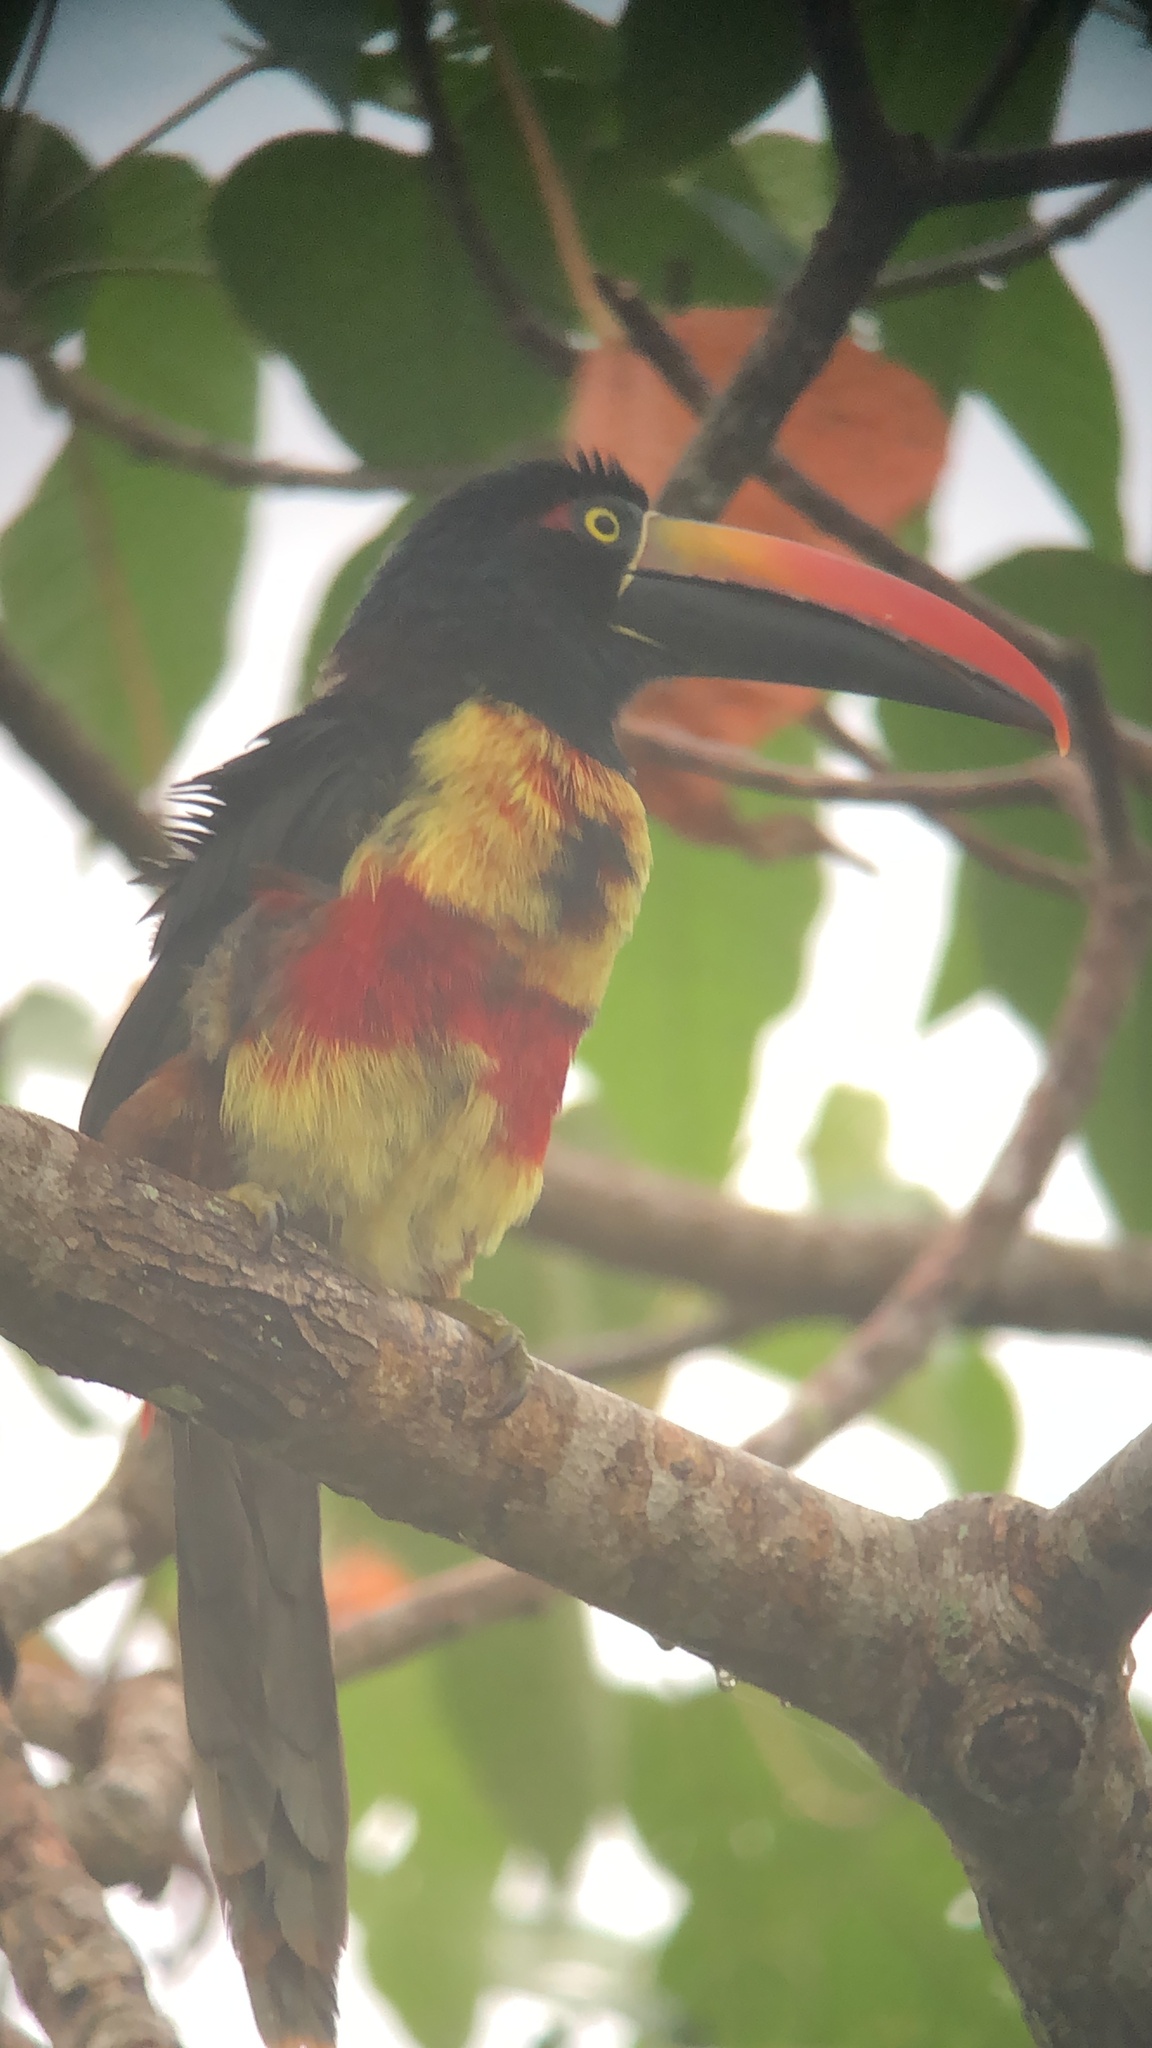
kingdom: Animalia
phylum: Chordata
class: Aves
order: Piciformes
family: Ramphastidae
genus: Pteroglossus
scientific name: Pteroglossus frantzii
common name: Fiery-billed aracari
